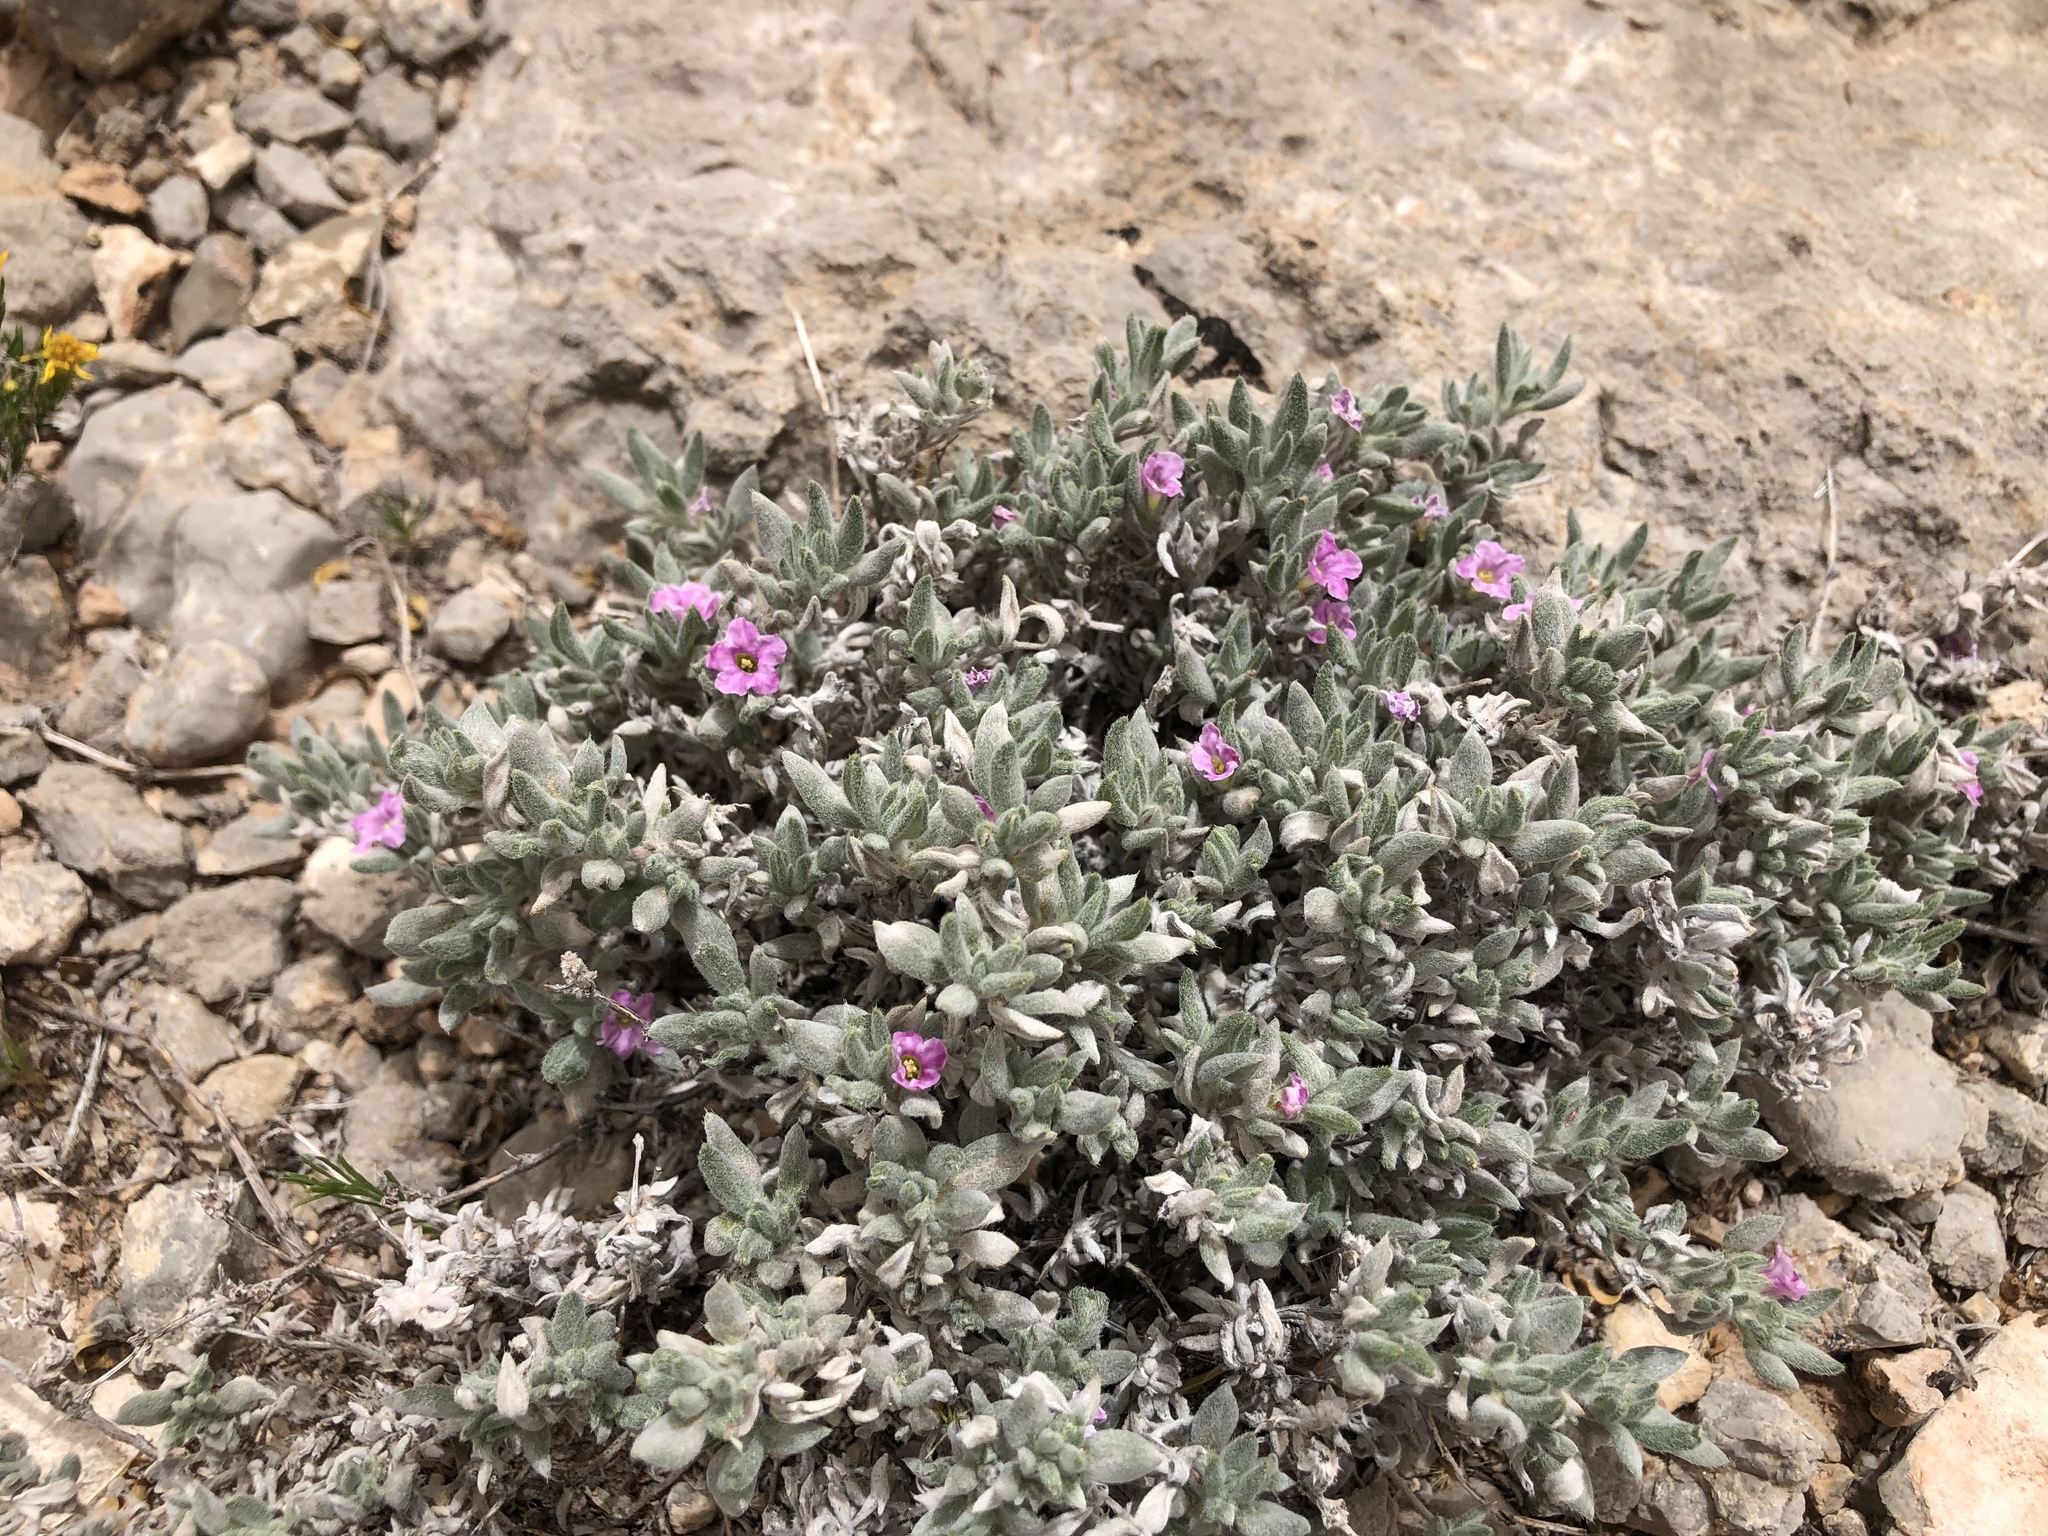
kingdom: Plantae
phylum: Tracheophyta
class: Magnoliopsida
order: Boraginales
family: Ehretiaceae
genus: Tiquilia
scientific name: Tiquilia canescens
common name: Hairy tiquilia
